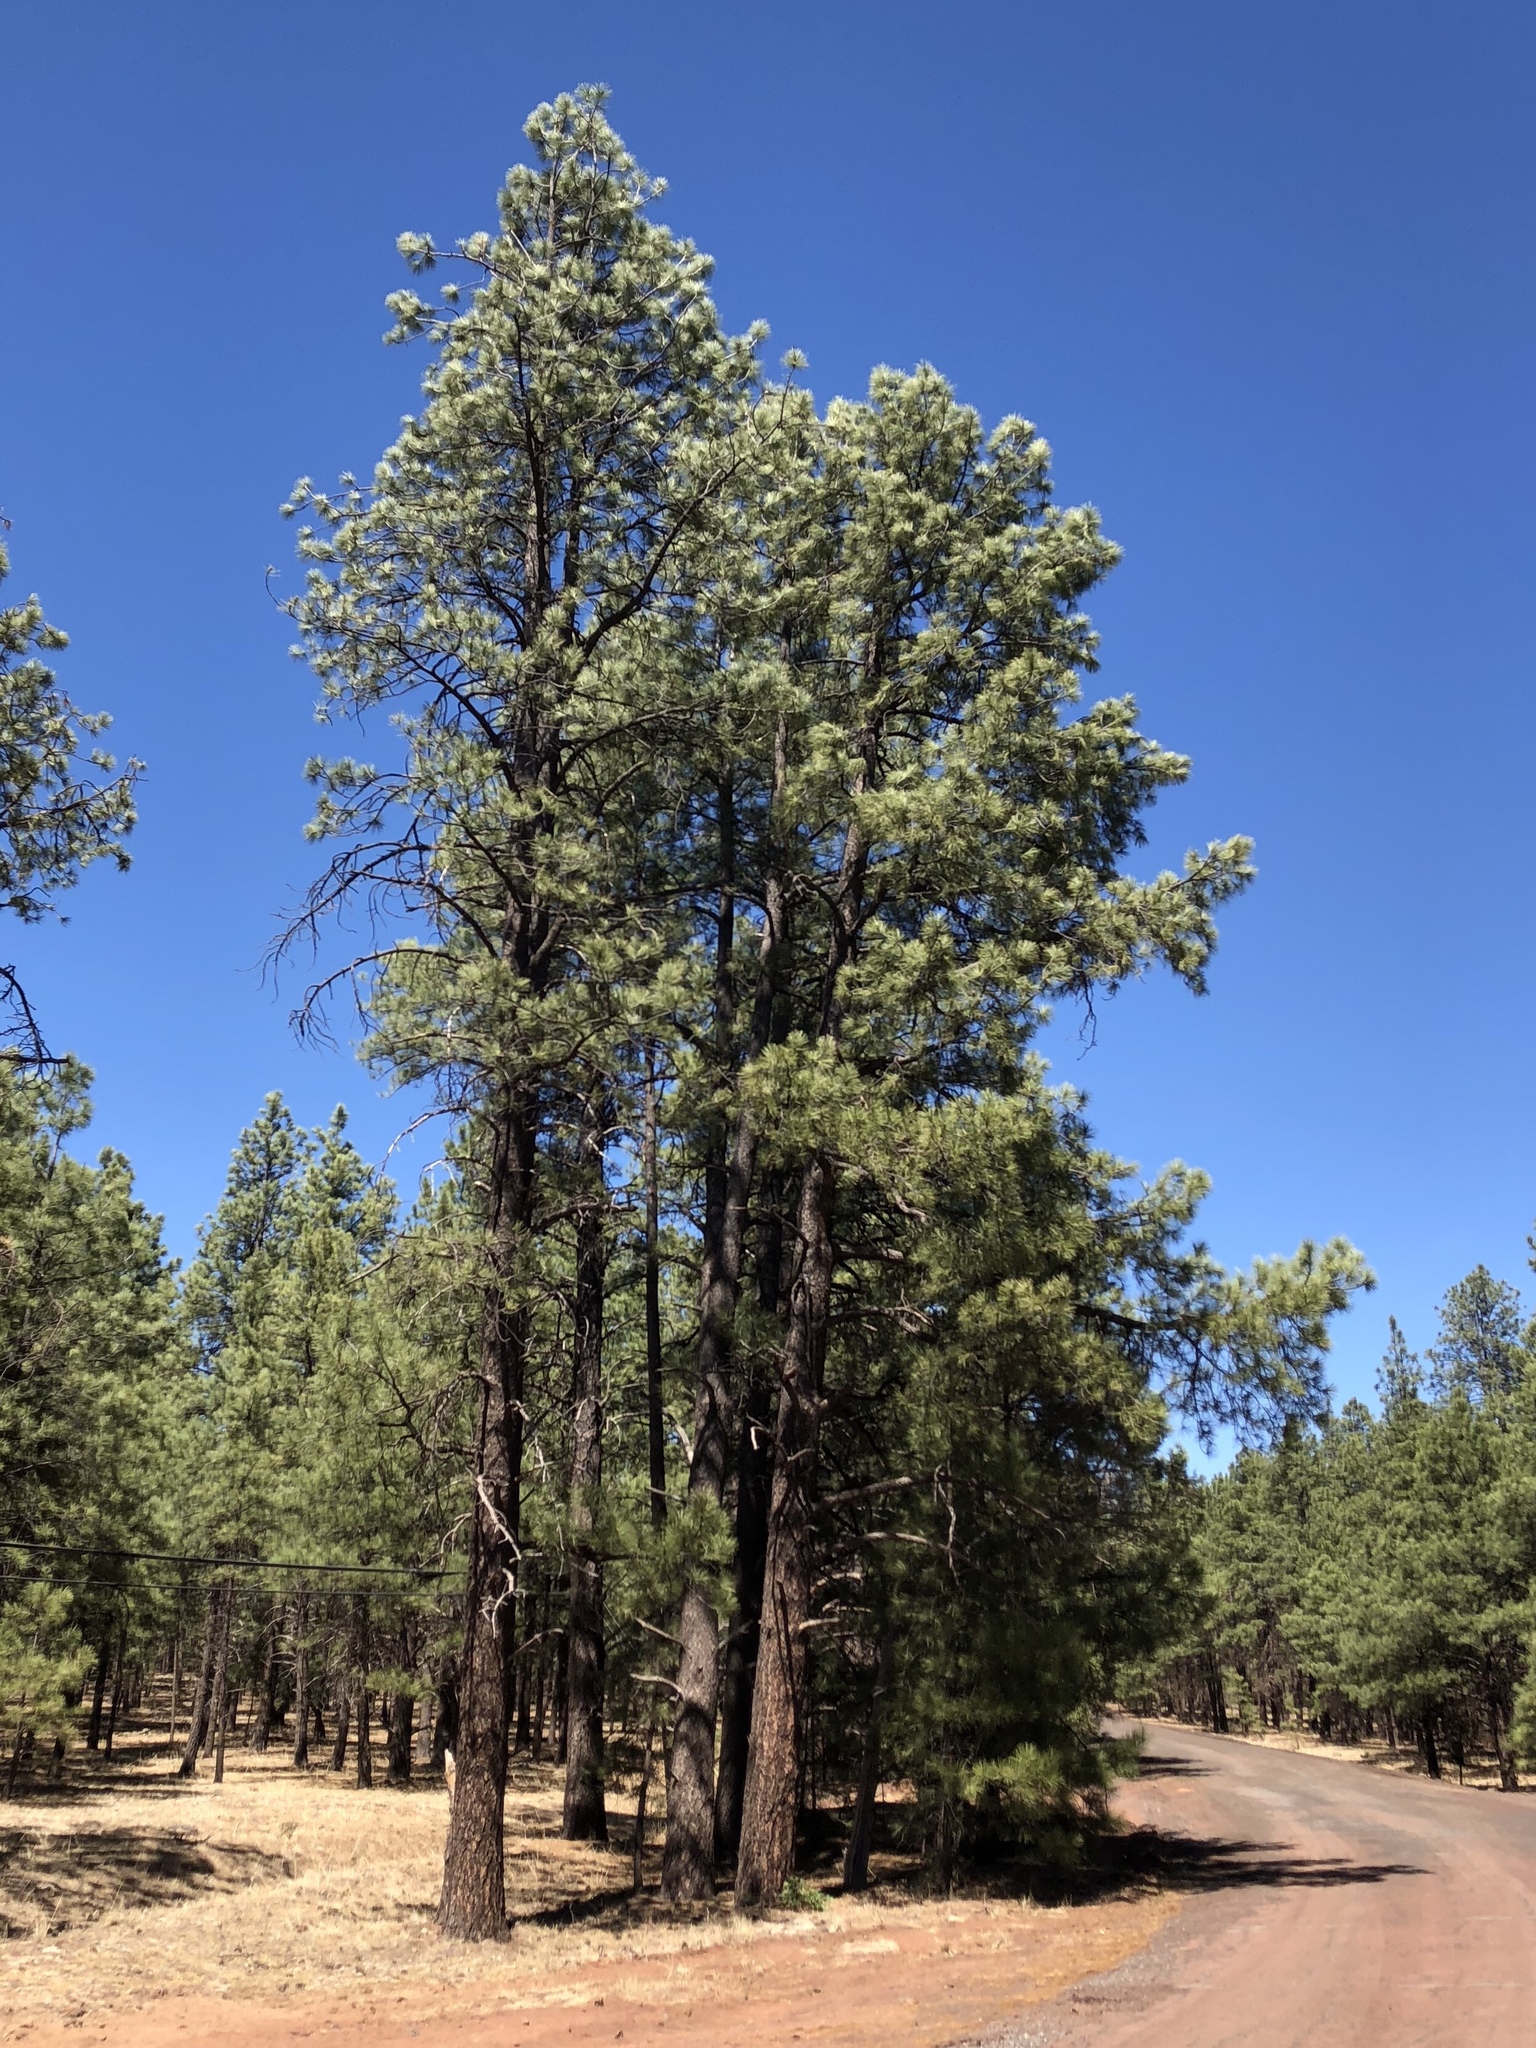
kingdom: Plantae
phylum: Tracheophyta
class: Pinopsida
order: Pinales
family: Pinaceae
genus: Pinus
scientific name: Pinus ponderosa
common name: Western yellow-pine
